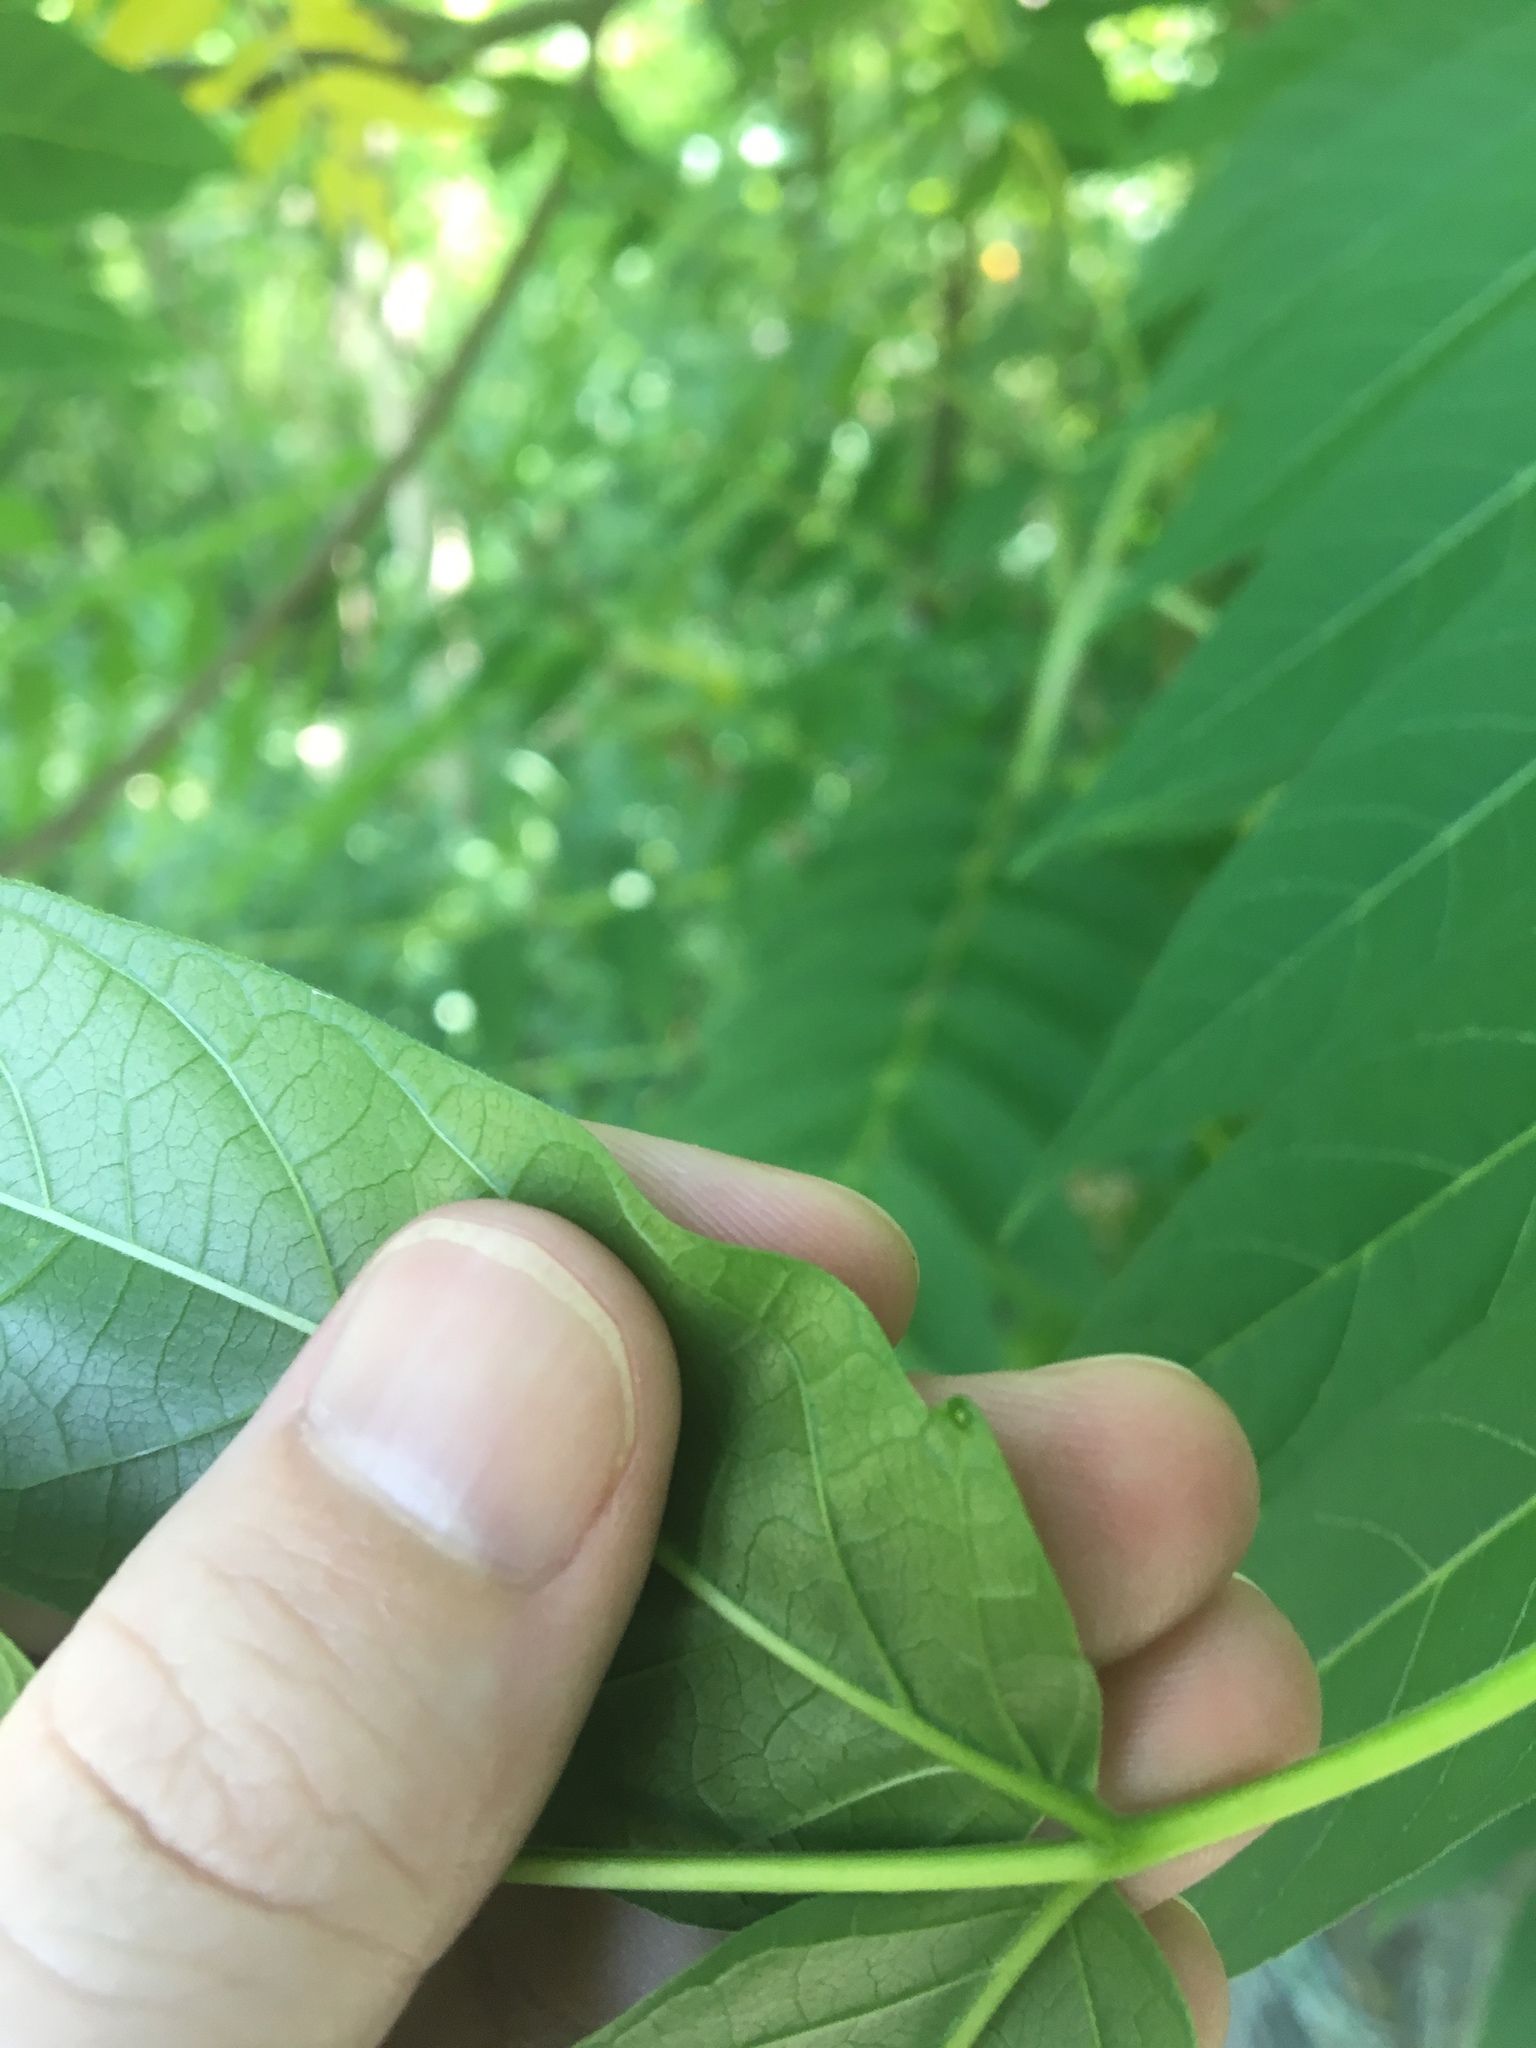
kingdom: Plantae
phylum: Tracheophyta
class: Magnoliopsida
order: Sapindales
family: Simaroubaceae
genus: Ailanthus
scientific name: Ailanthus altissima
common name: Tree-of-heaven
